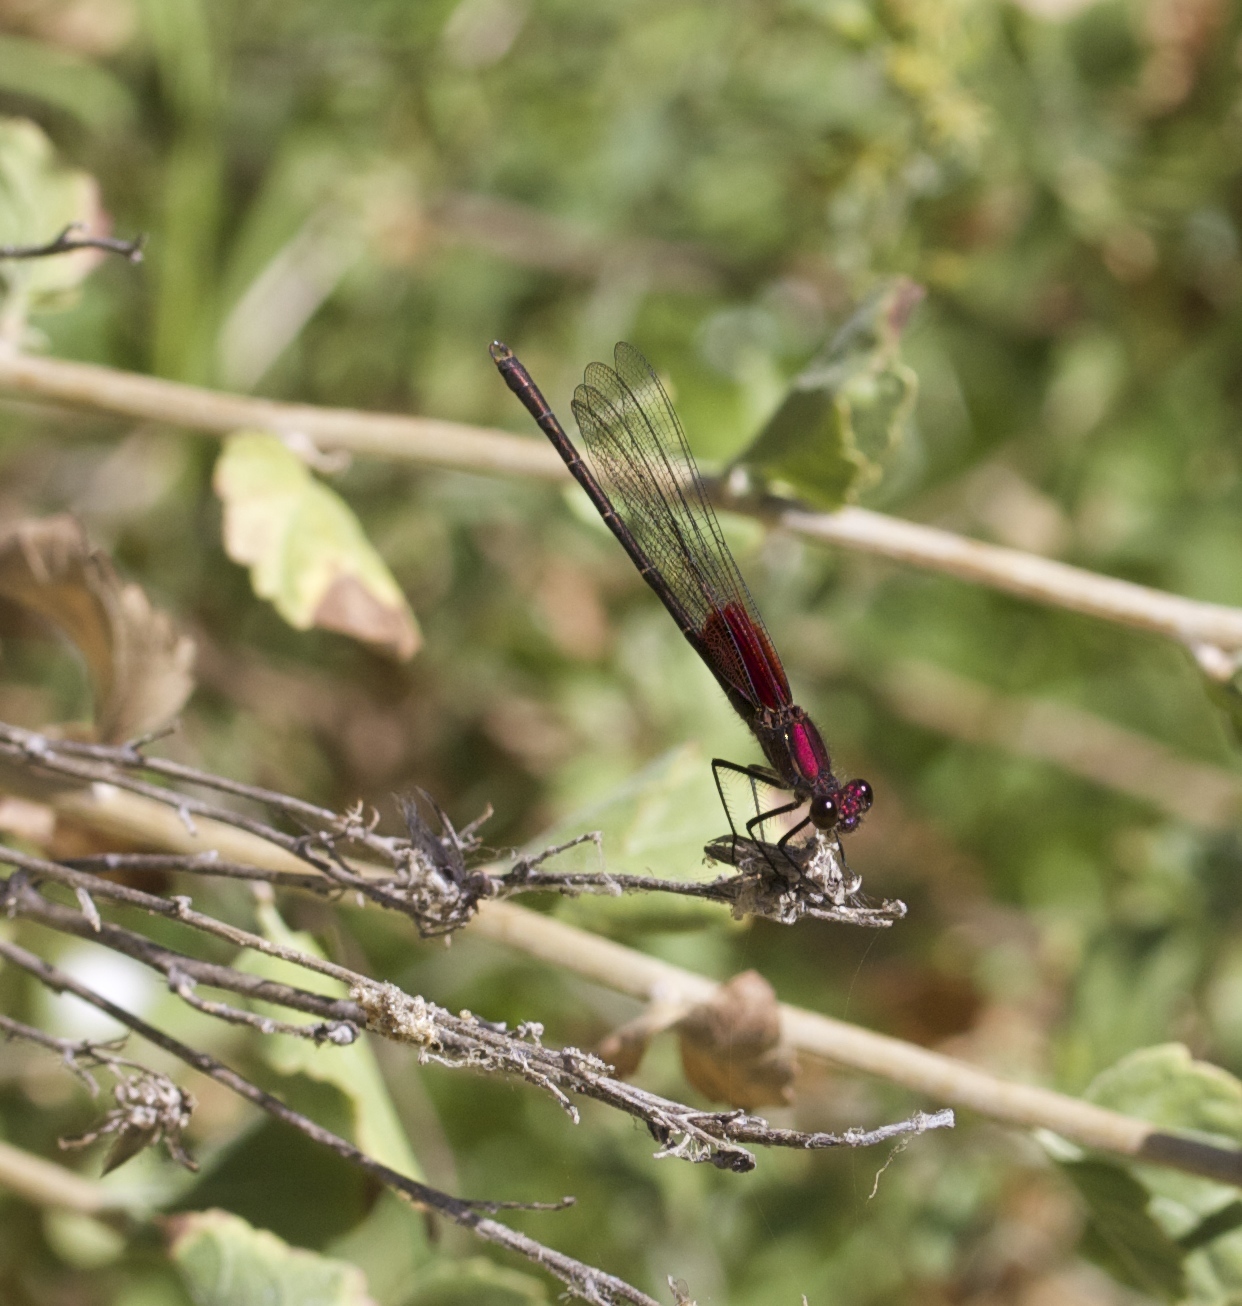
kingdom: Animalia
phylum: Arthropoda
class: Insecta
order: Odonata
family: Calopterygidae
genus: Hetaerina
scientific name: Hetaerina americana
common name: American rubyspot
